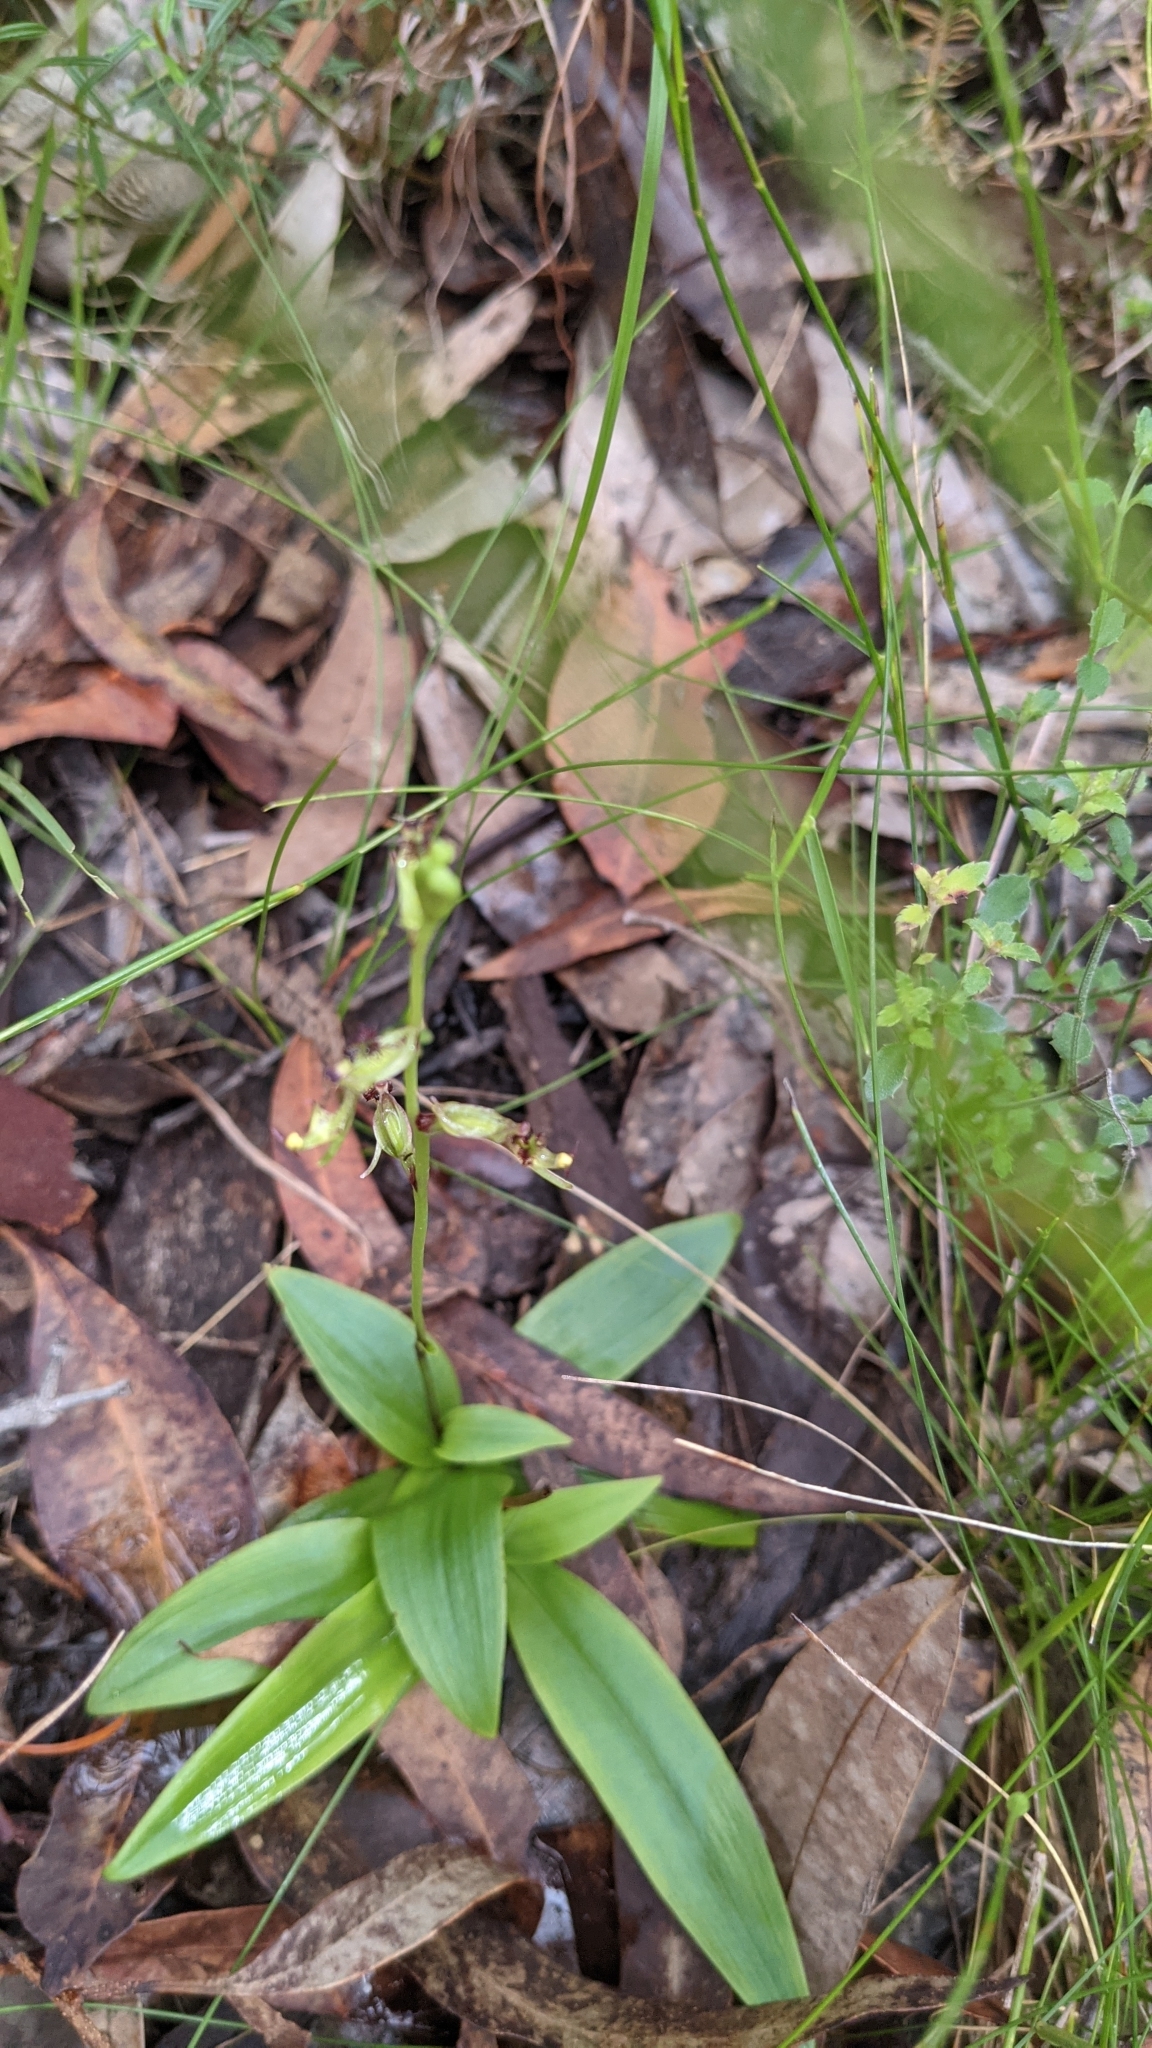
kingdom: Plantae
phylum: Tracheophyta
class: Liliopsida
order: Asparagales
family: Orchidaceae
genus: Arthrochilus
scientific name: Arthrochilus prolixus
